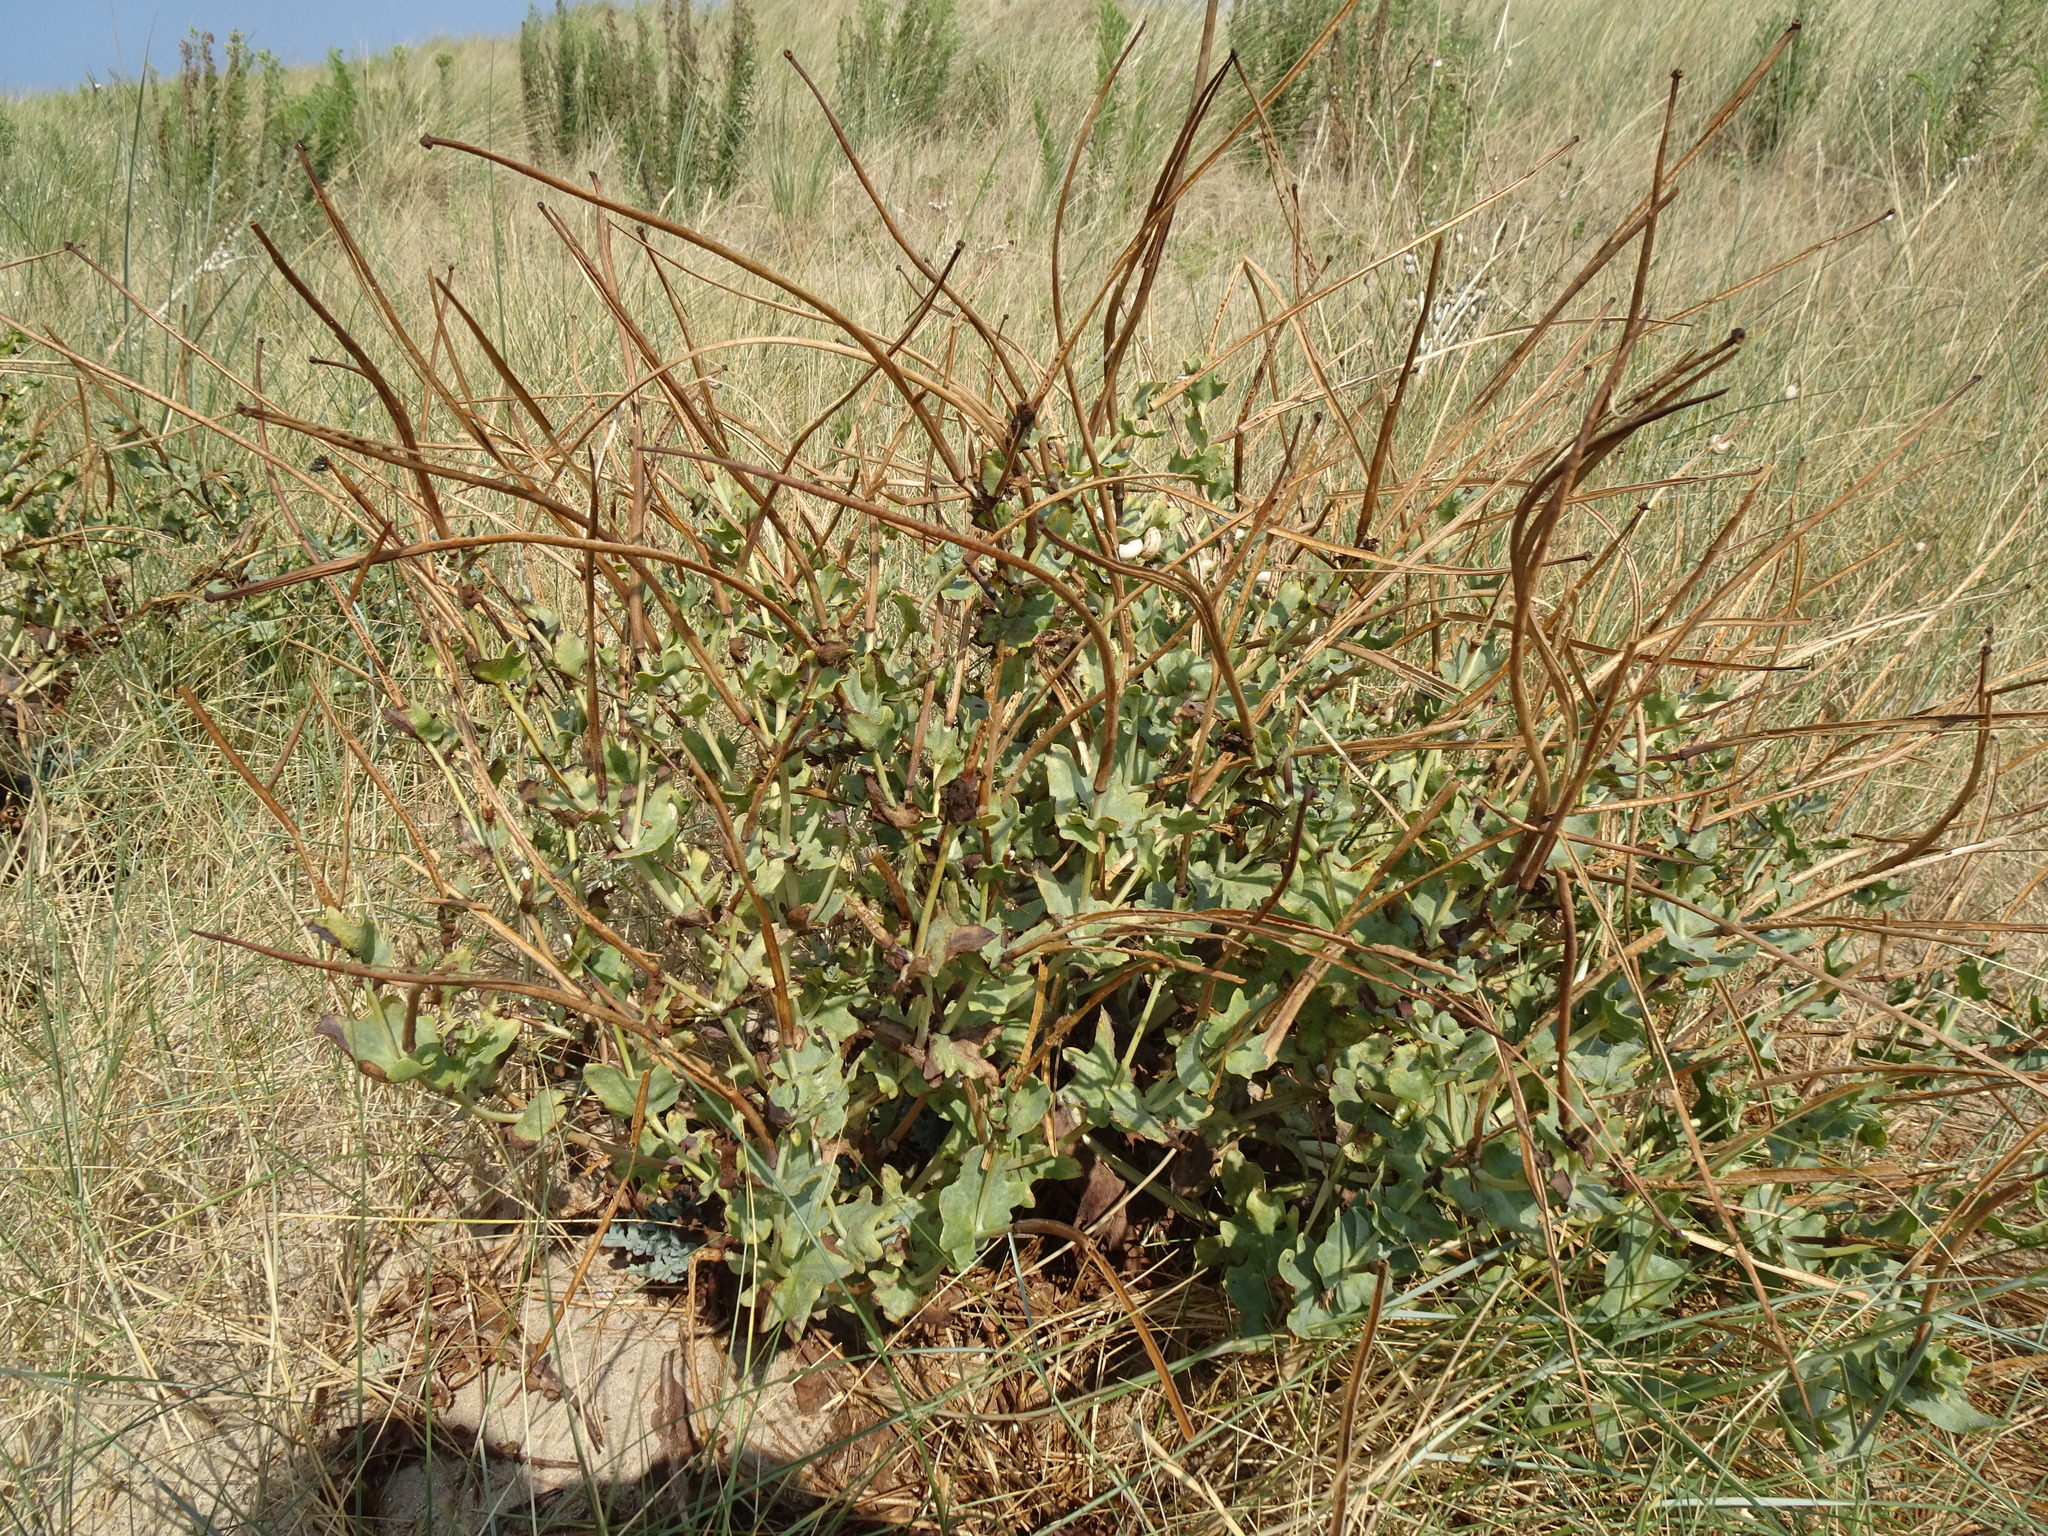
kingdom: Plantae
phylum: Tracheophyta
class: Magnoliopsida
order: Ranunculales
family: Papaveraceae
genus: Glaucium
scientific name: Glaucium flavum
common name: Yellow horned-poppy
